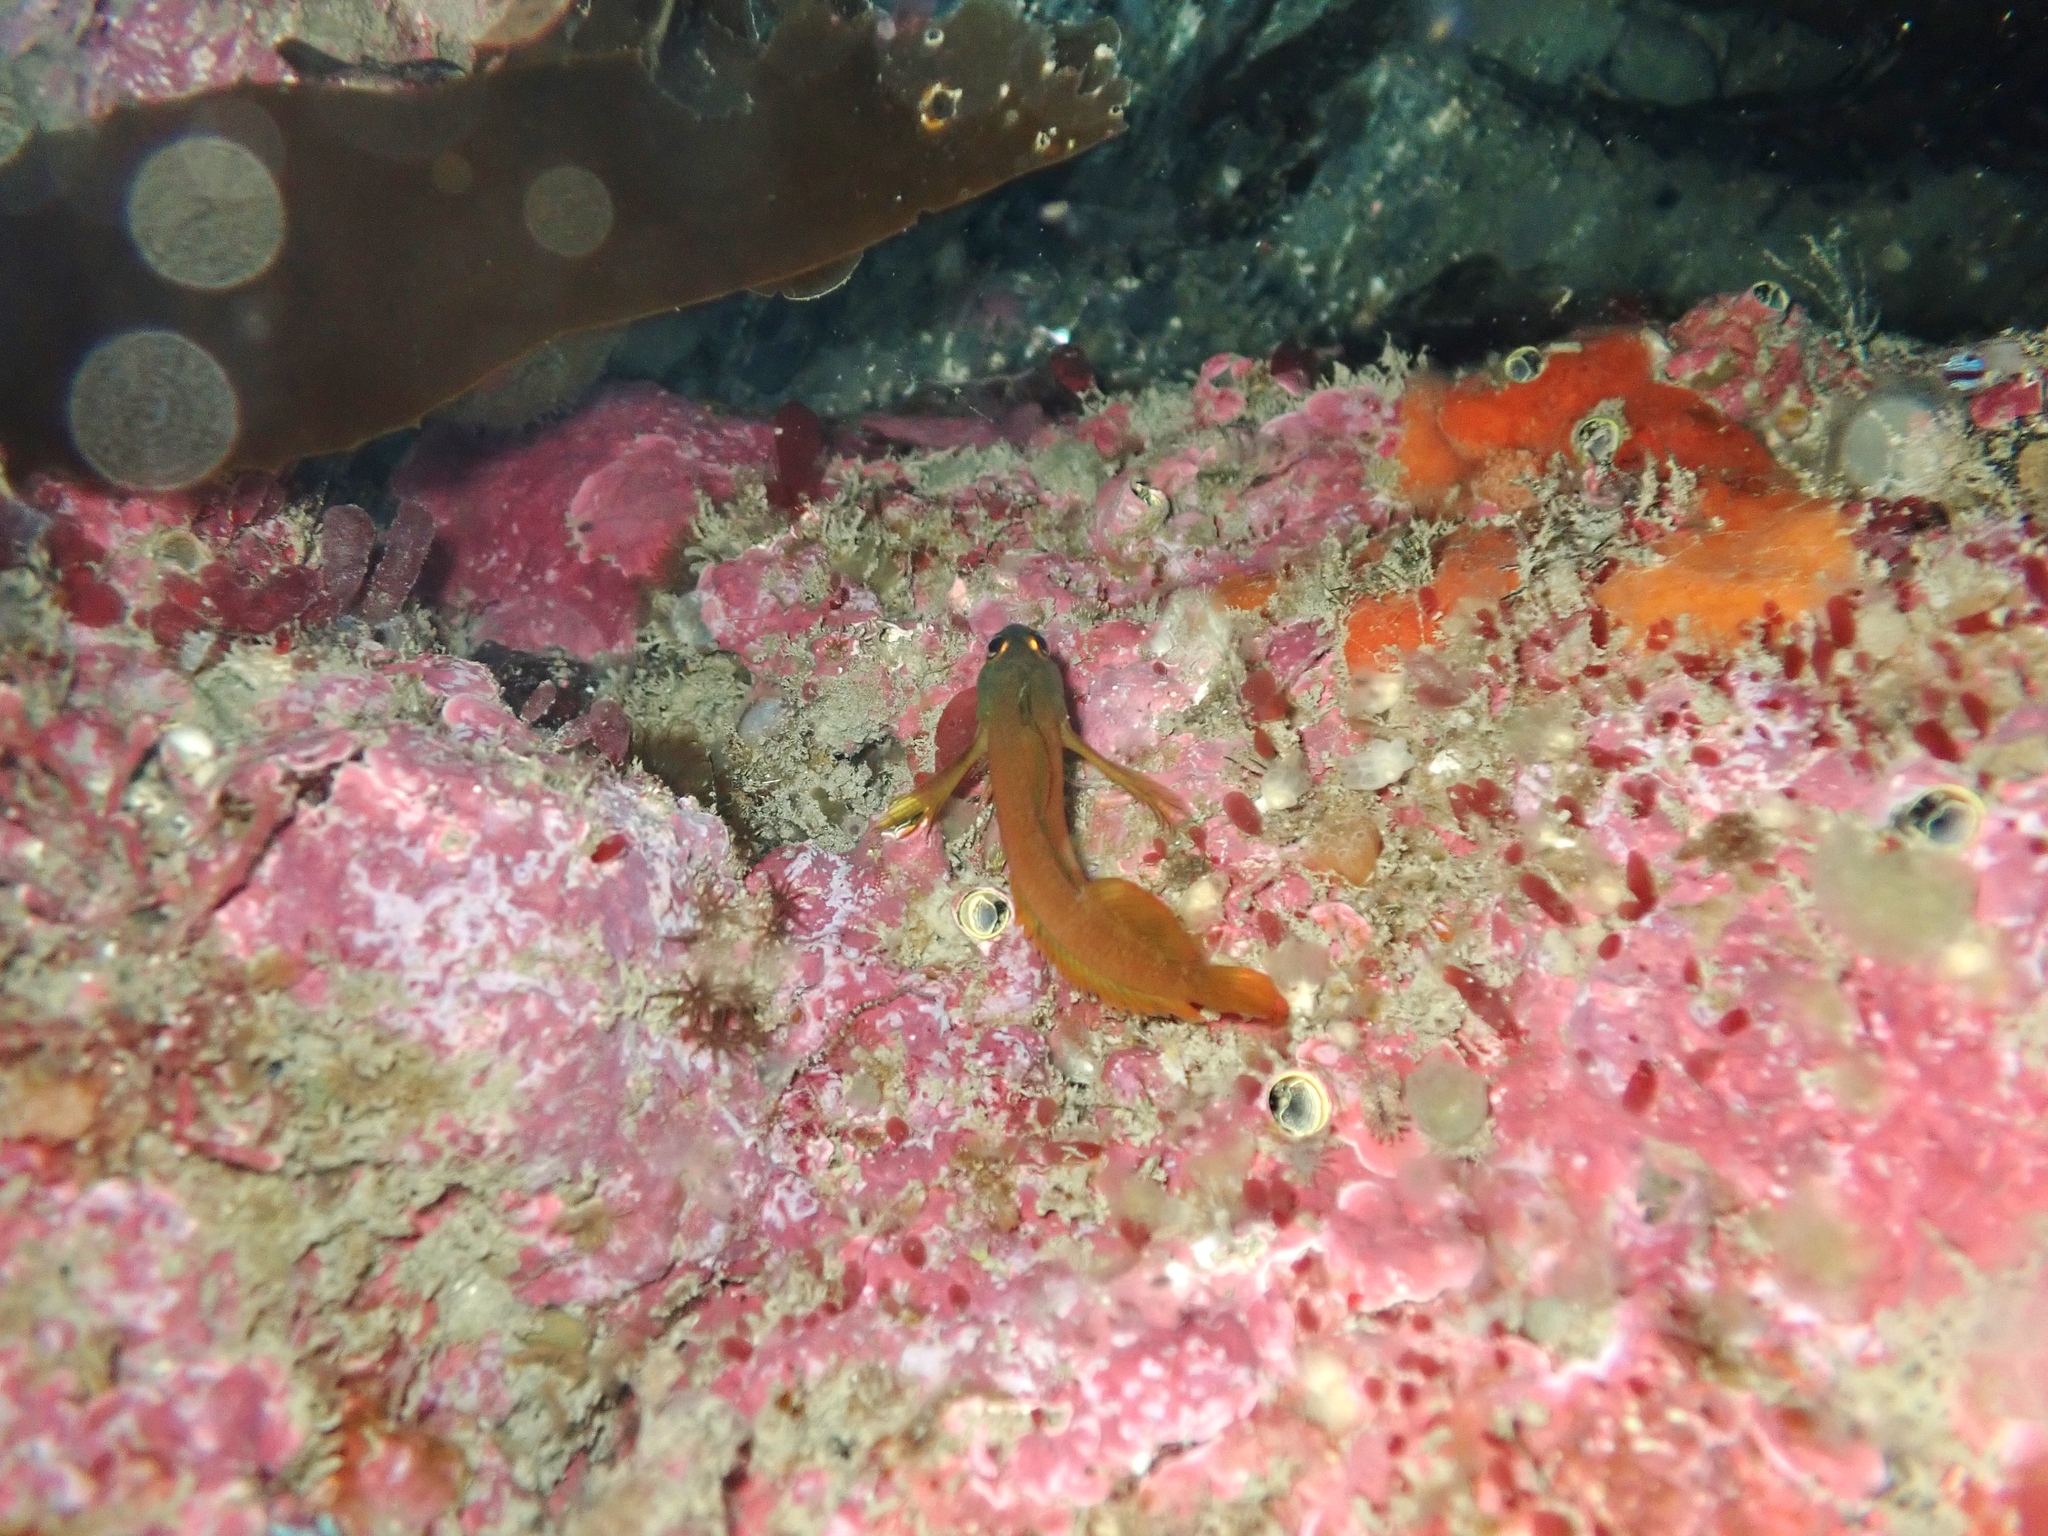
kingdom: Animalia
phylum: Chordata
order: Perciformes
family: Tripterygiidae
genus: Notoclinops
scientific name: Notoclinops yaldwyni
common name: Yaldwyn's triplefin
